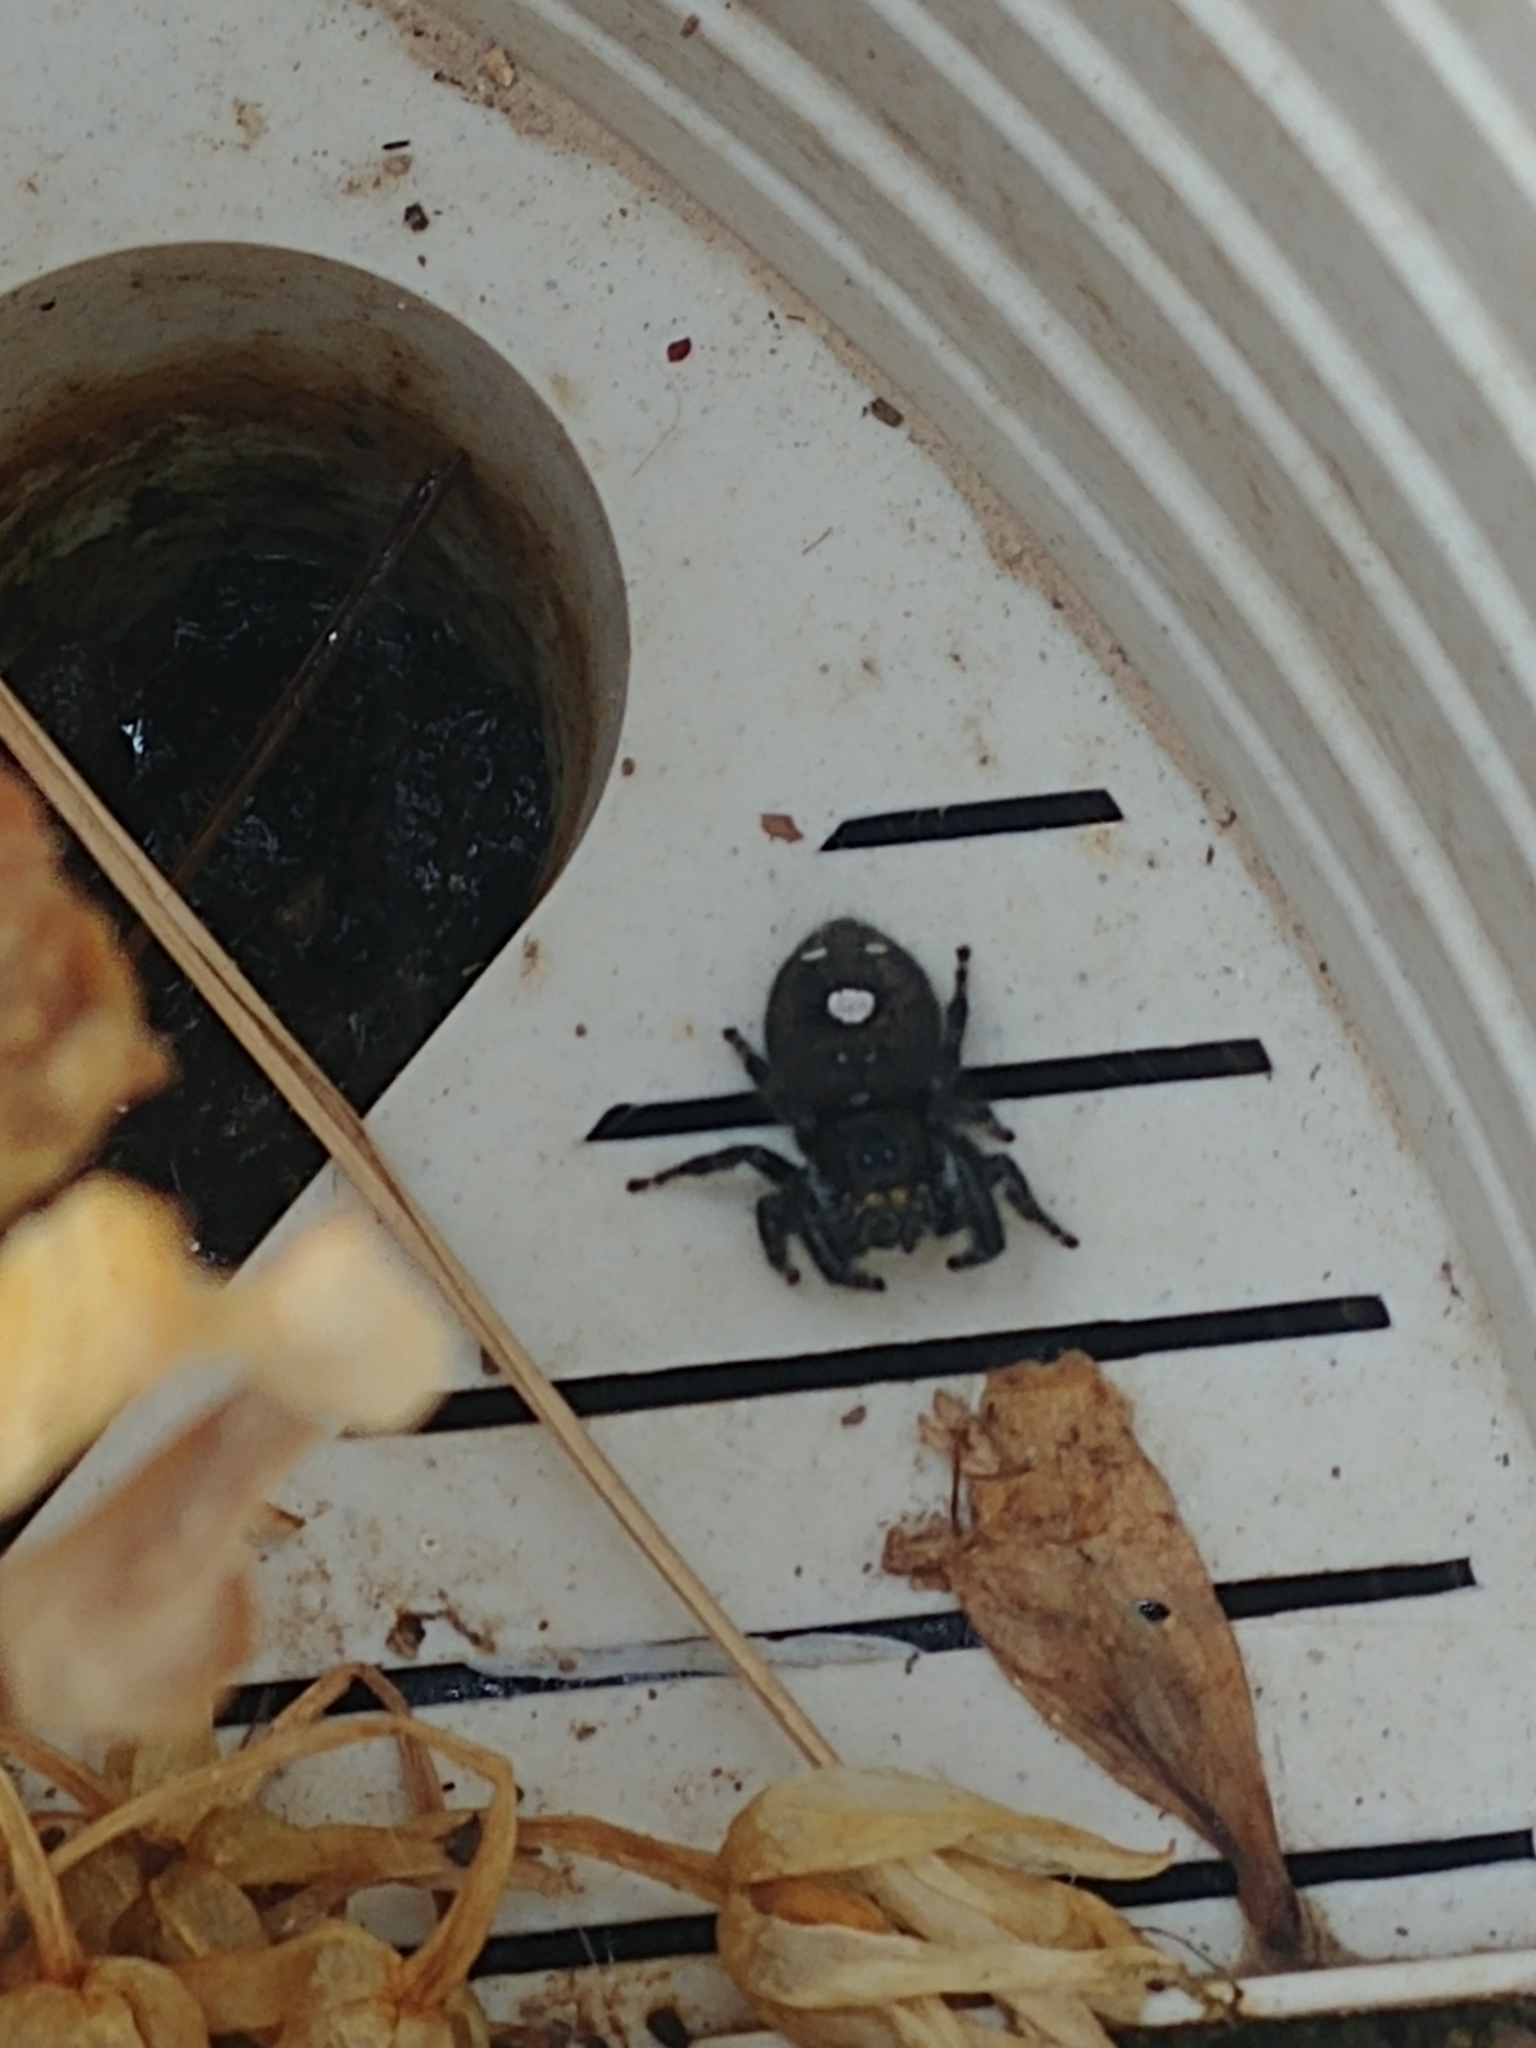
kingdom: Animalia
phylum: Arthropoda
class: Arachnida
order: Araneae
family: Salticidae
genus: Phidippus
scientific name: Phidippus audax
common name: Bold jumper
